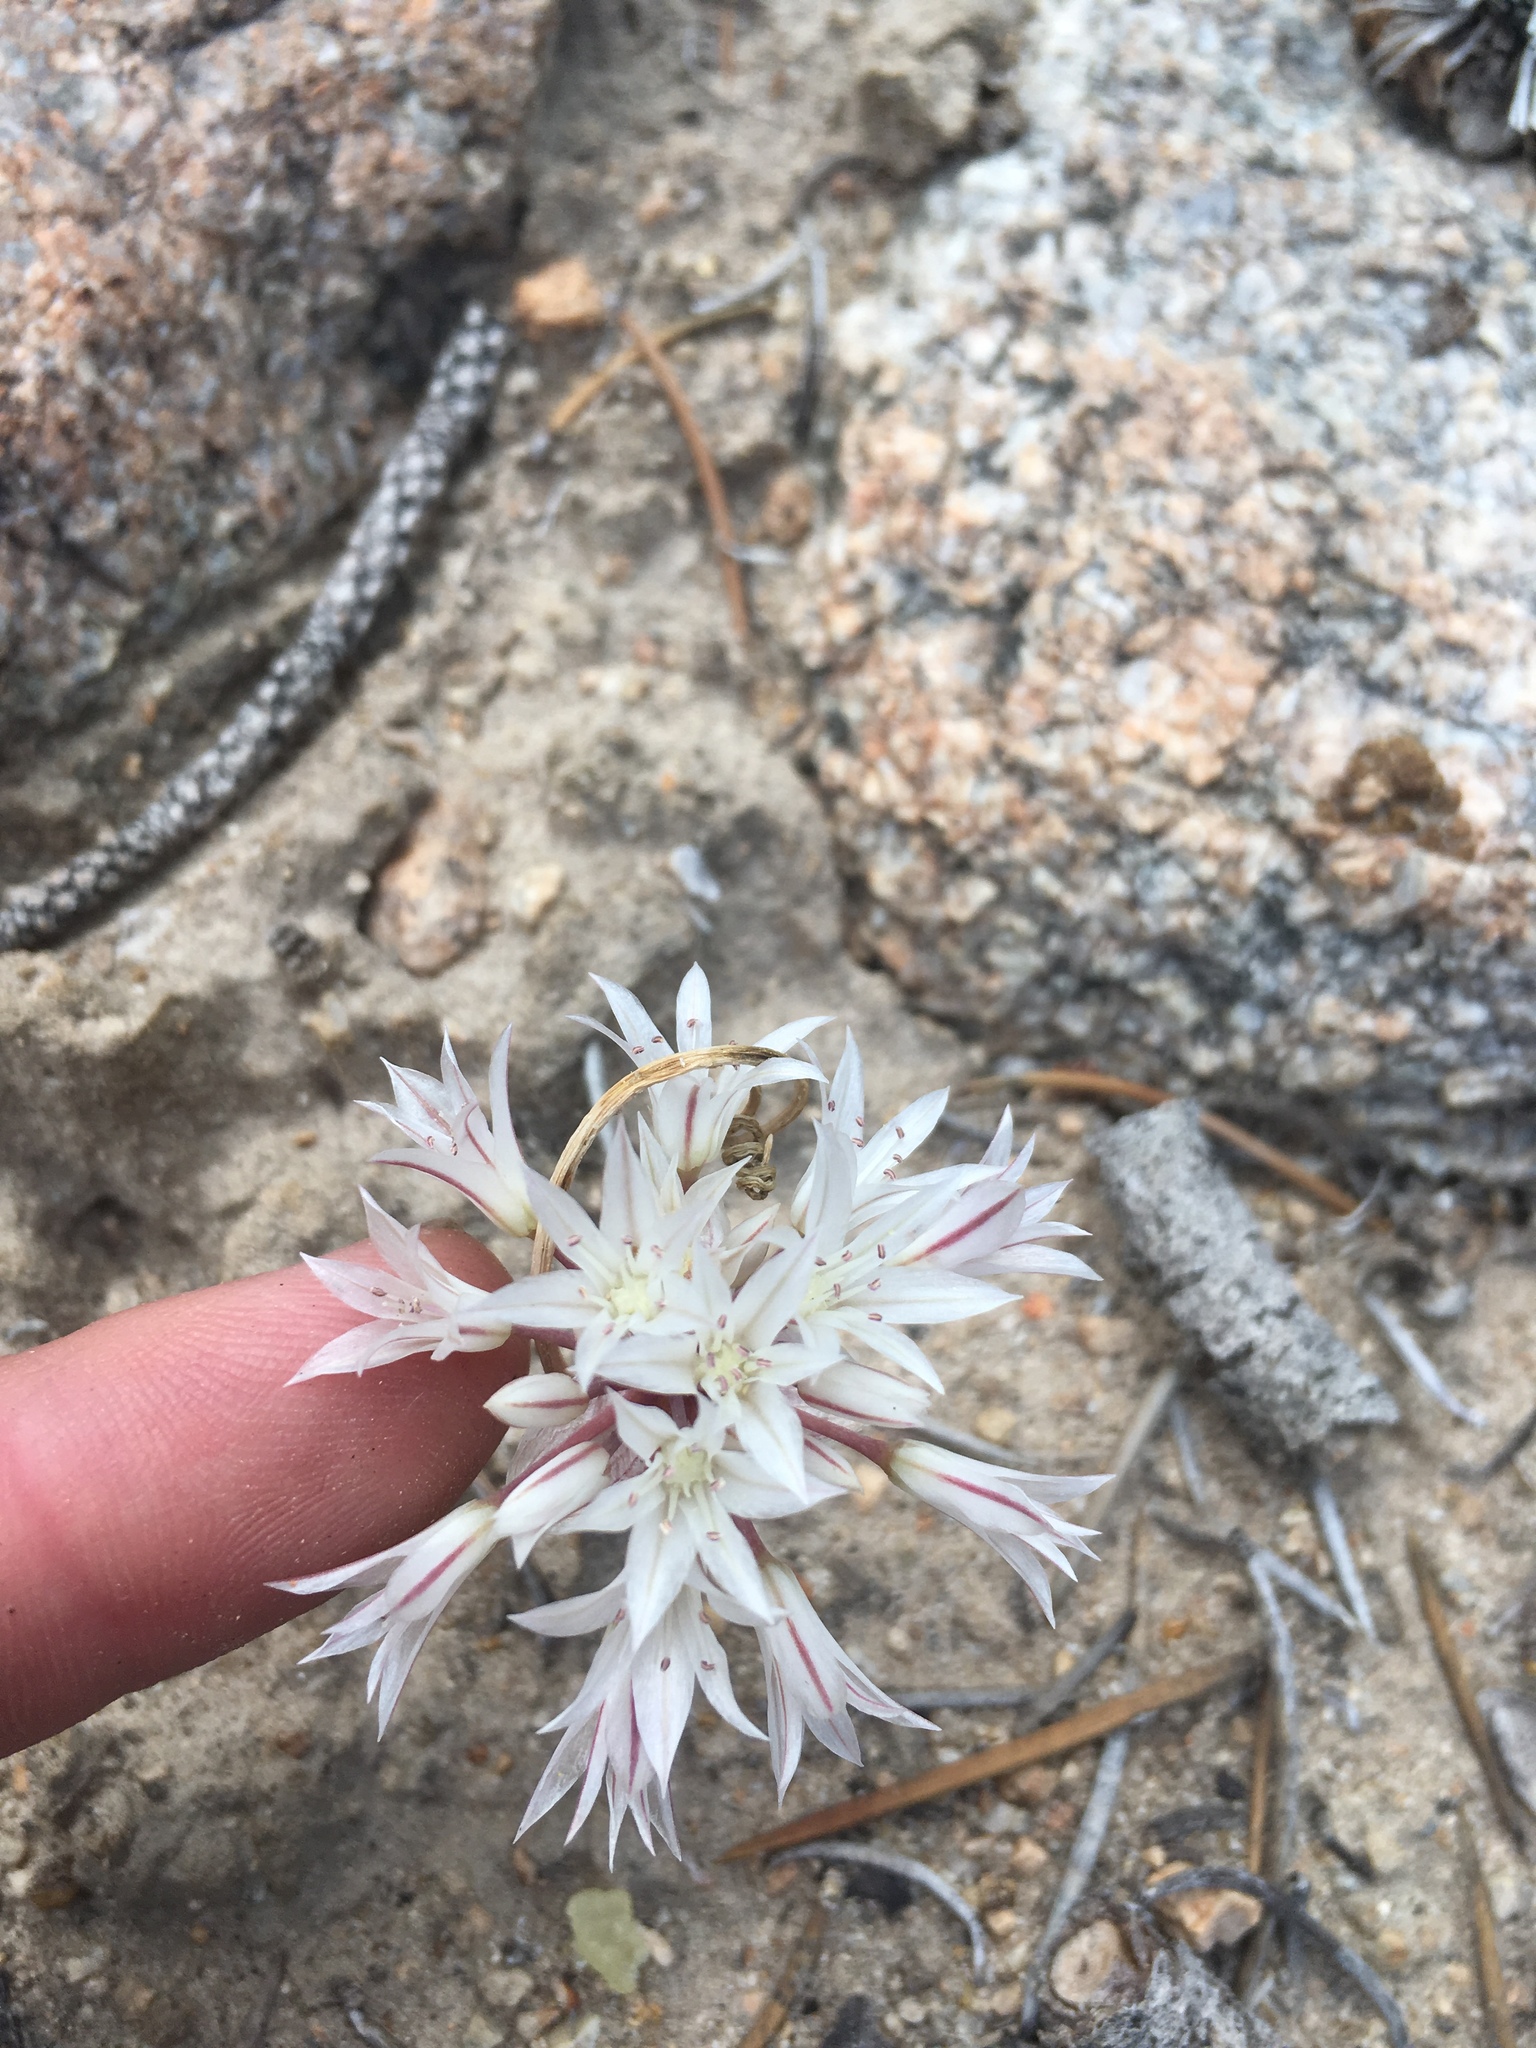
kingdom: Plantae
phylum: Tracheophyta
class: Liliopsida
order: Asparagales
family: Amaryllidaceae
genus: Allium
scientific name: Allium atrorubens
